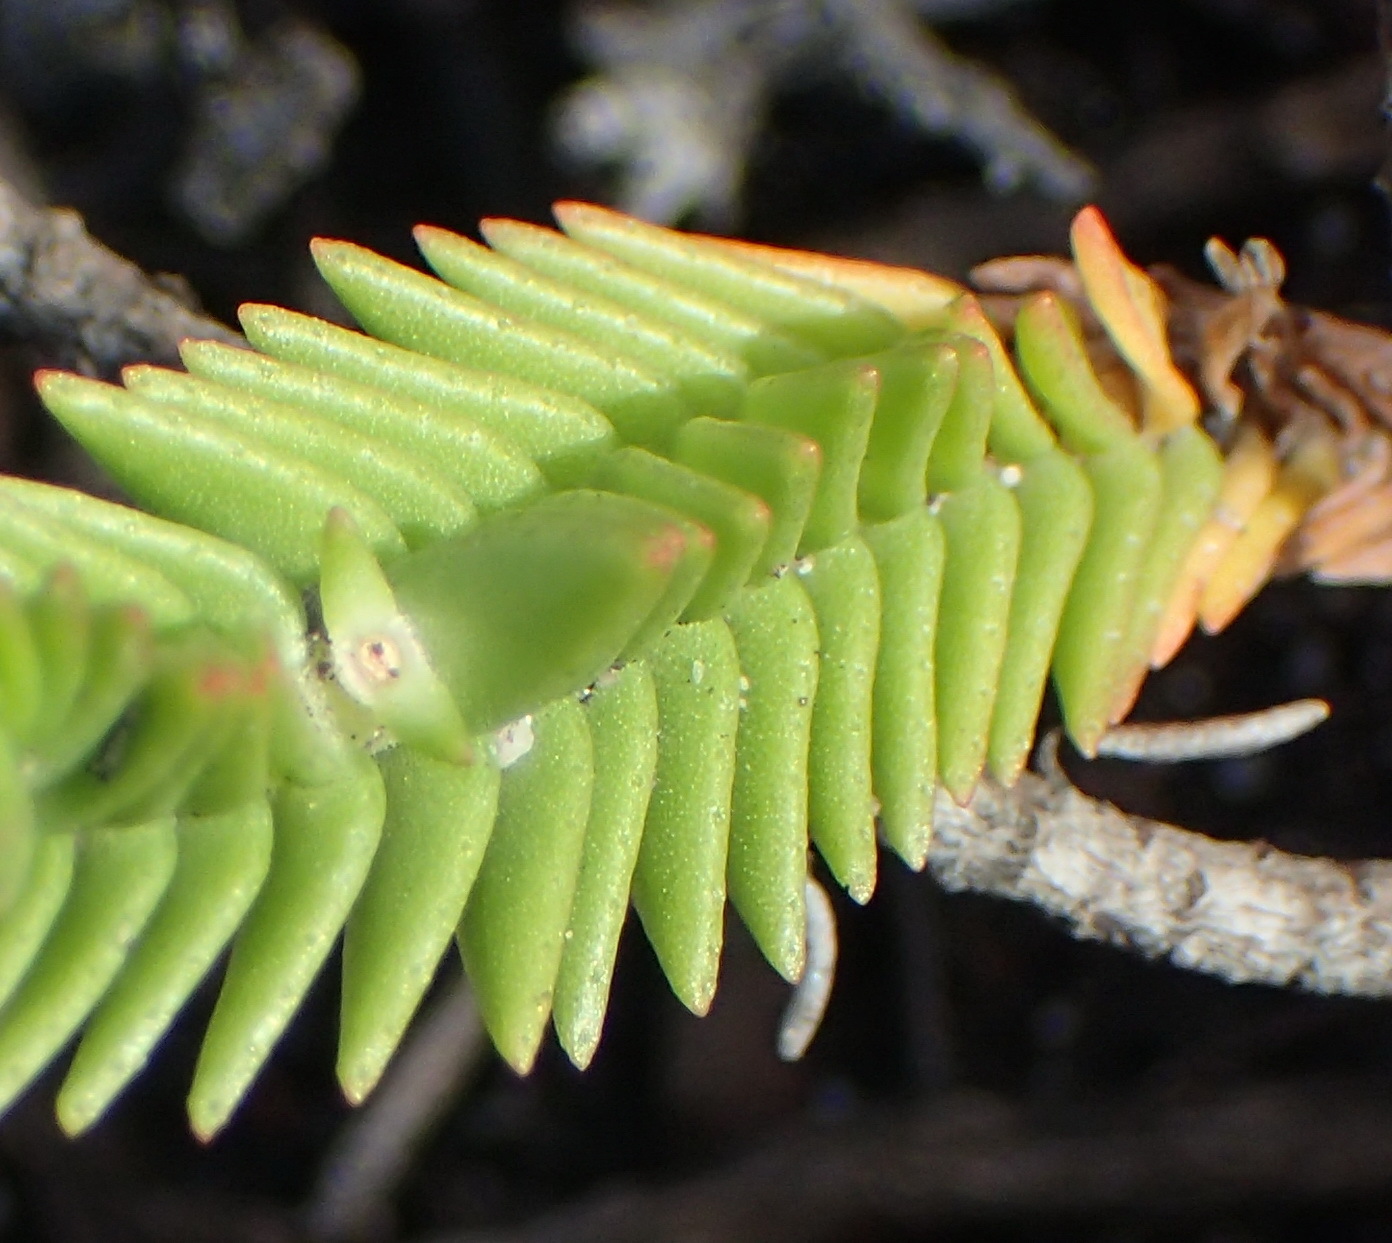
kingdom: Plantae
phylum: Tracheophyta
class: Magnoliopsida
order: Saxifragales
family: Crassulaceae
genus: Crassula
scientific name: Crassula ericoides
